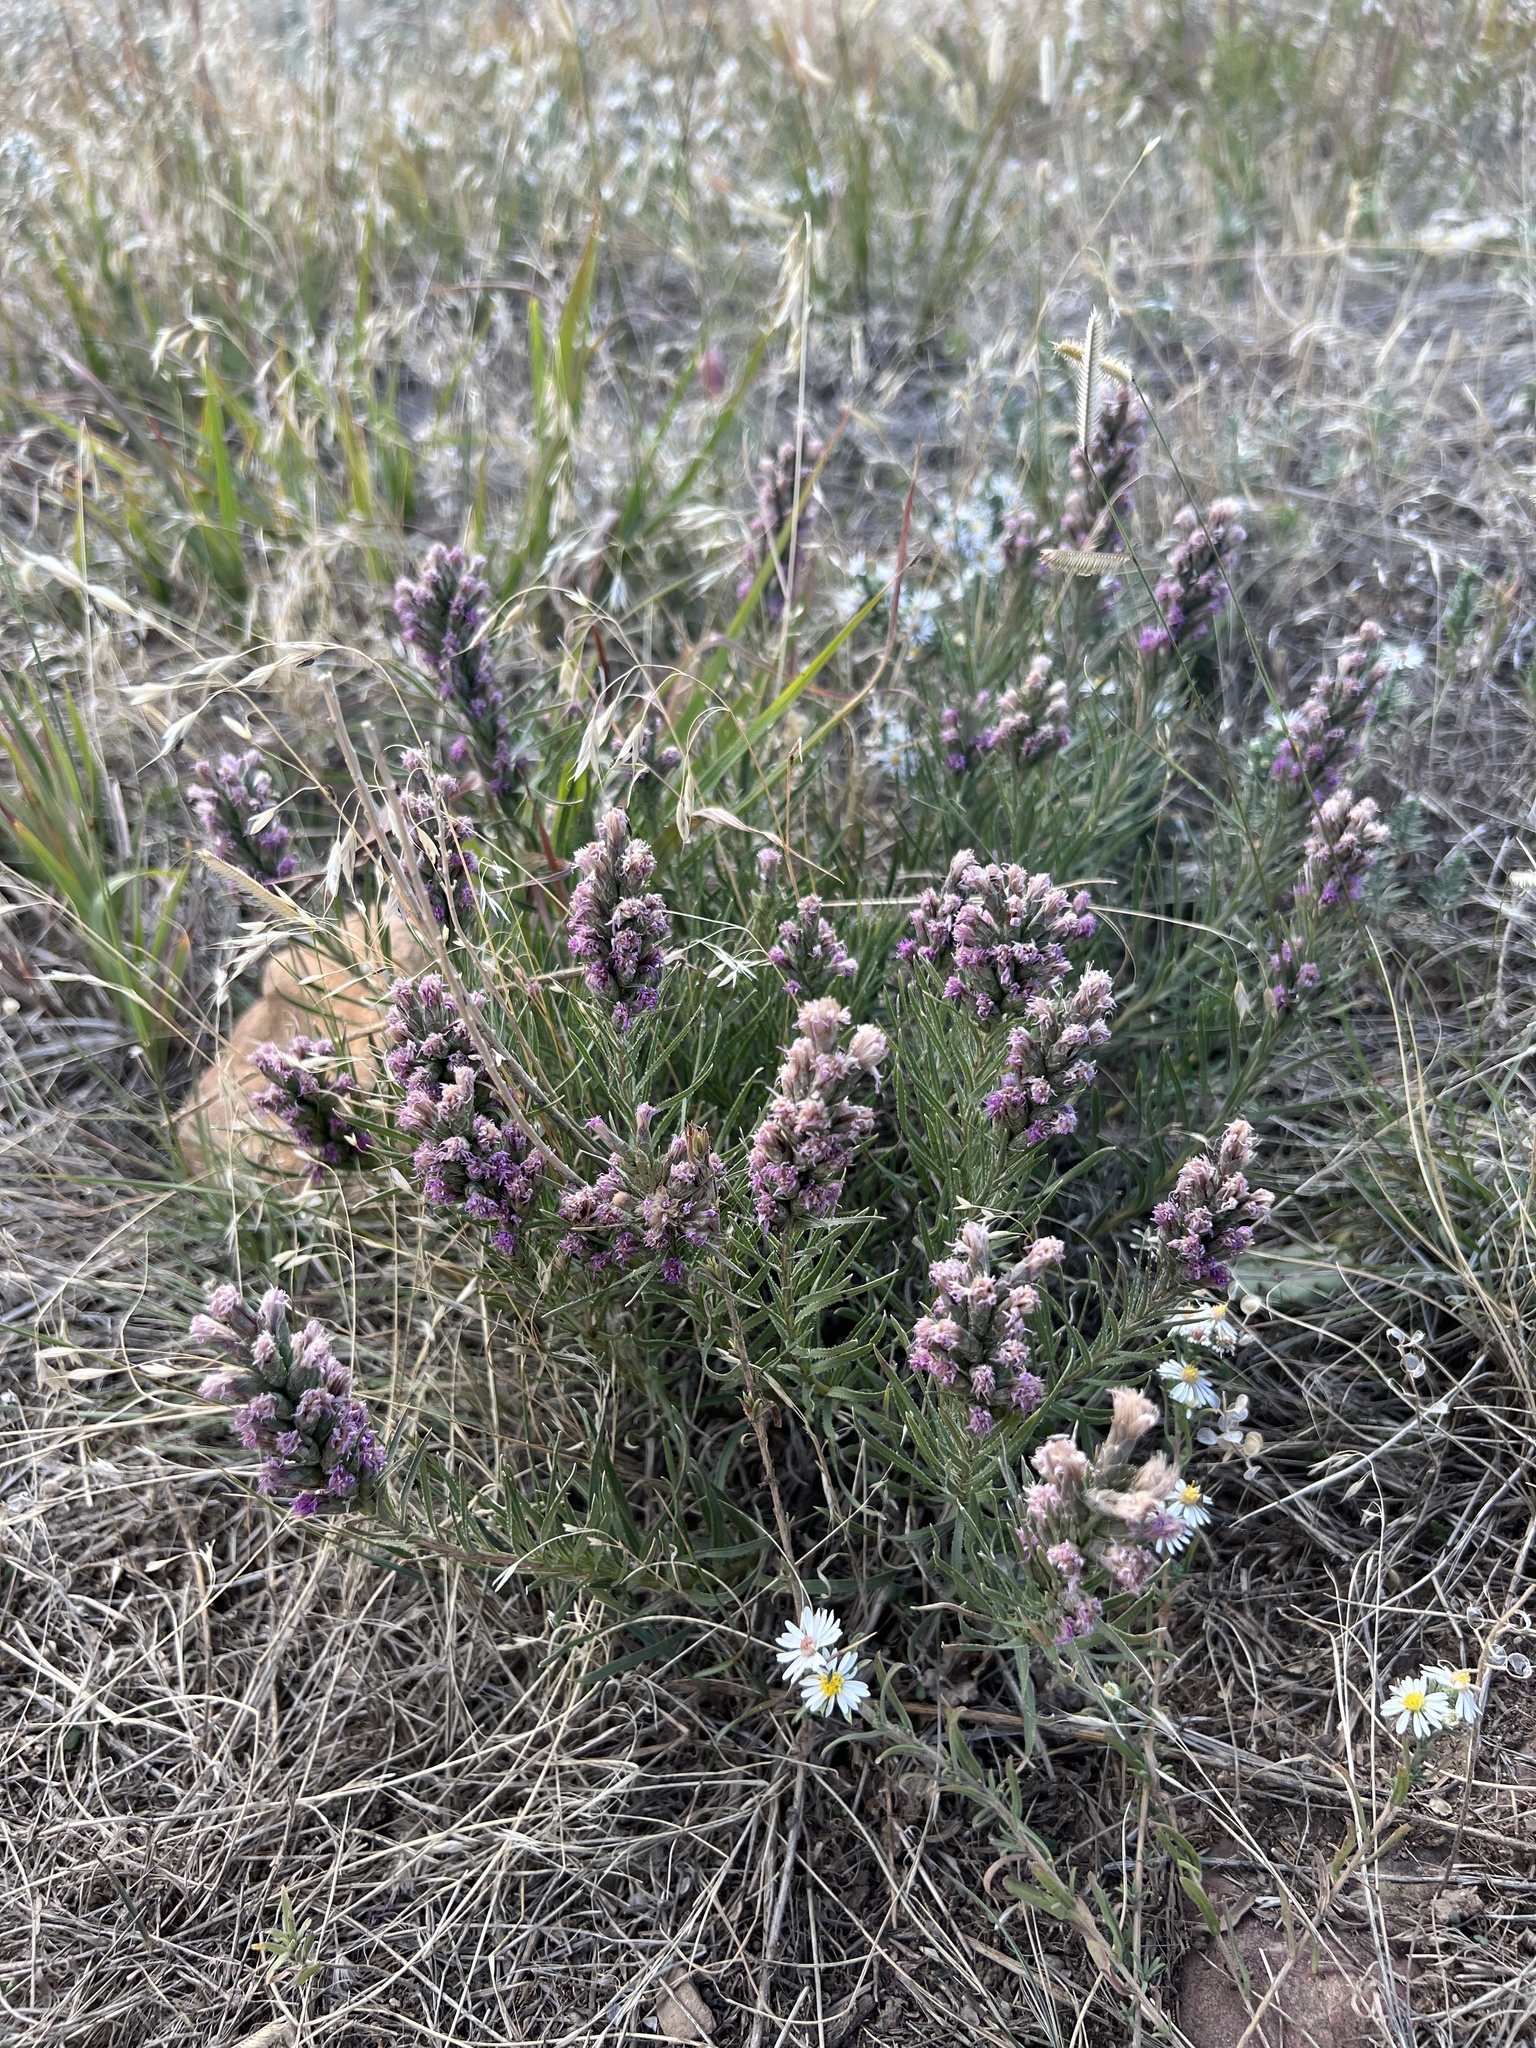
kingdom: Plantae
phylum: Tracheophyta
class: Magnoliopsida
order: Asterales
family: Asteraceae
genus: Liatris
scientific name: Liatris punctata
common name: Dotted gayfeather
